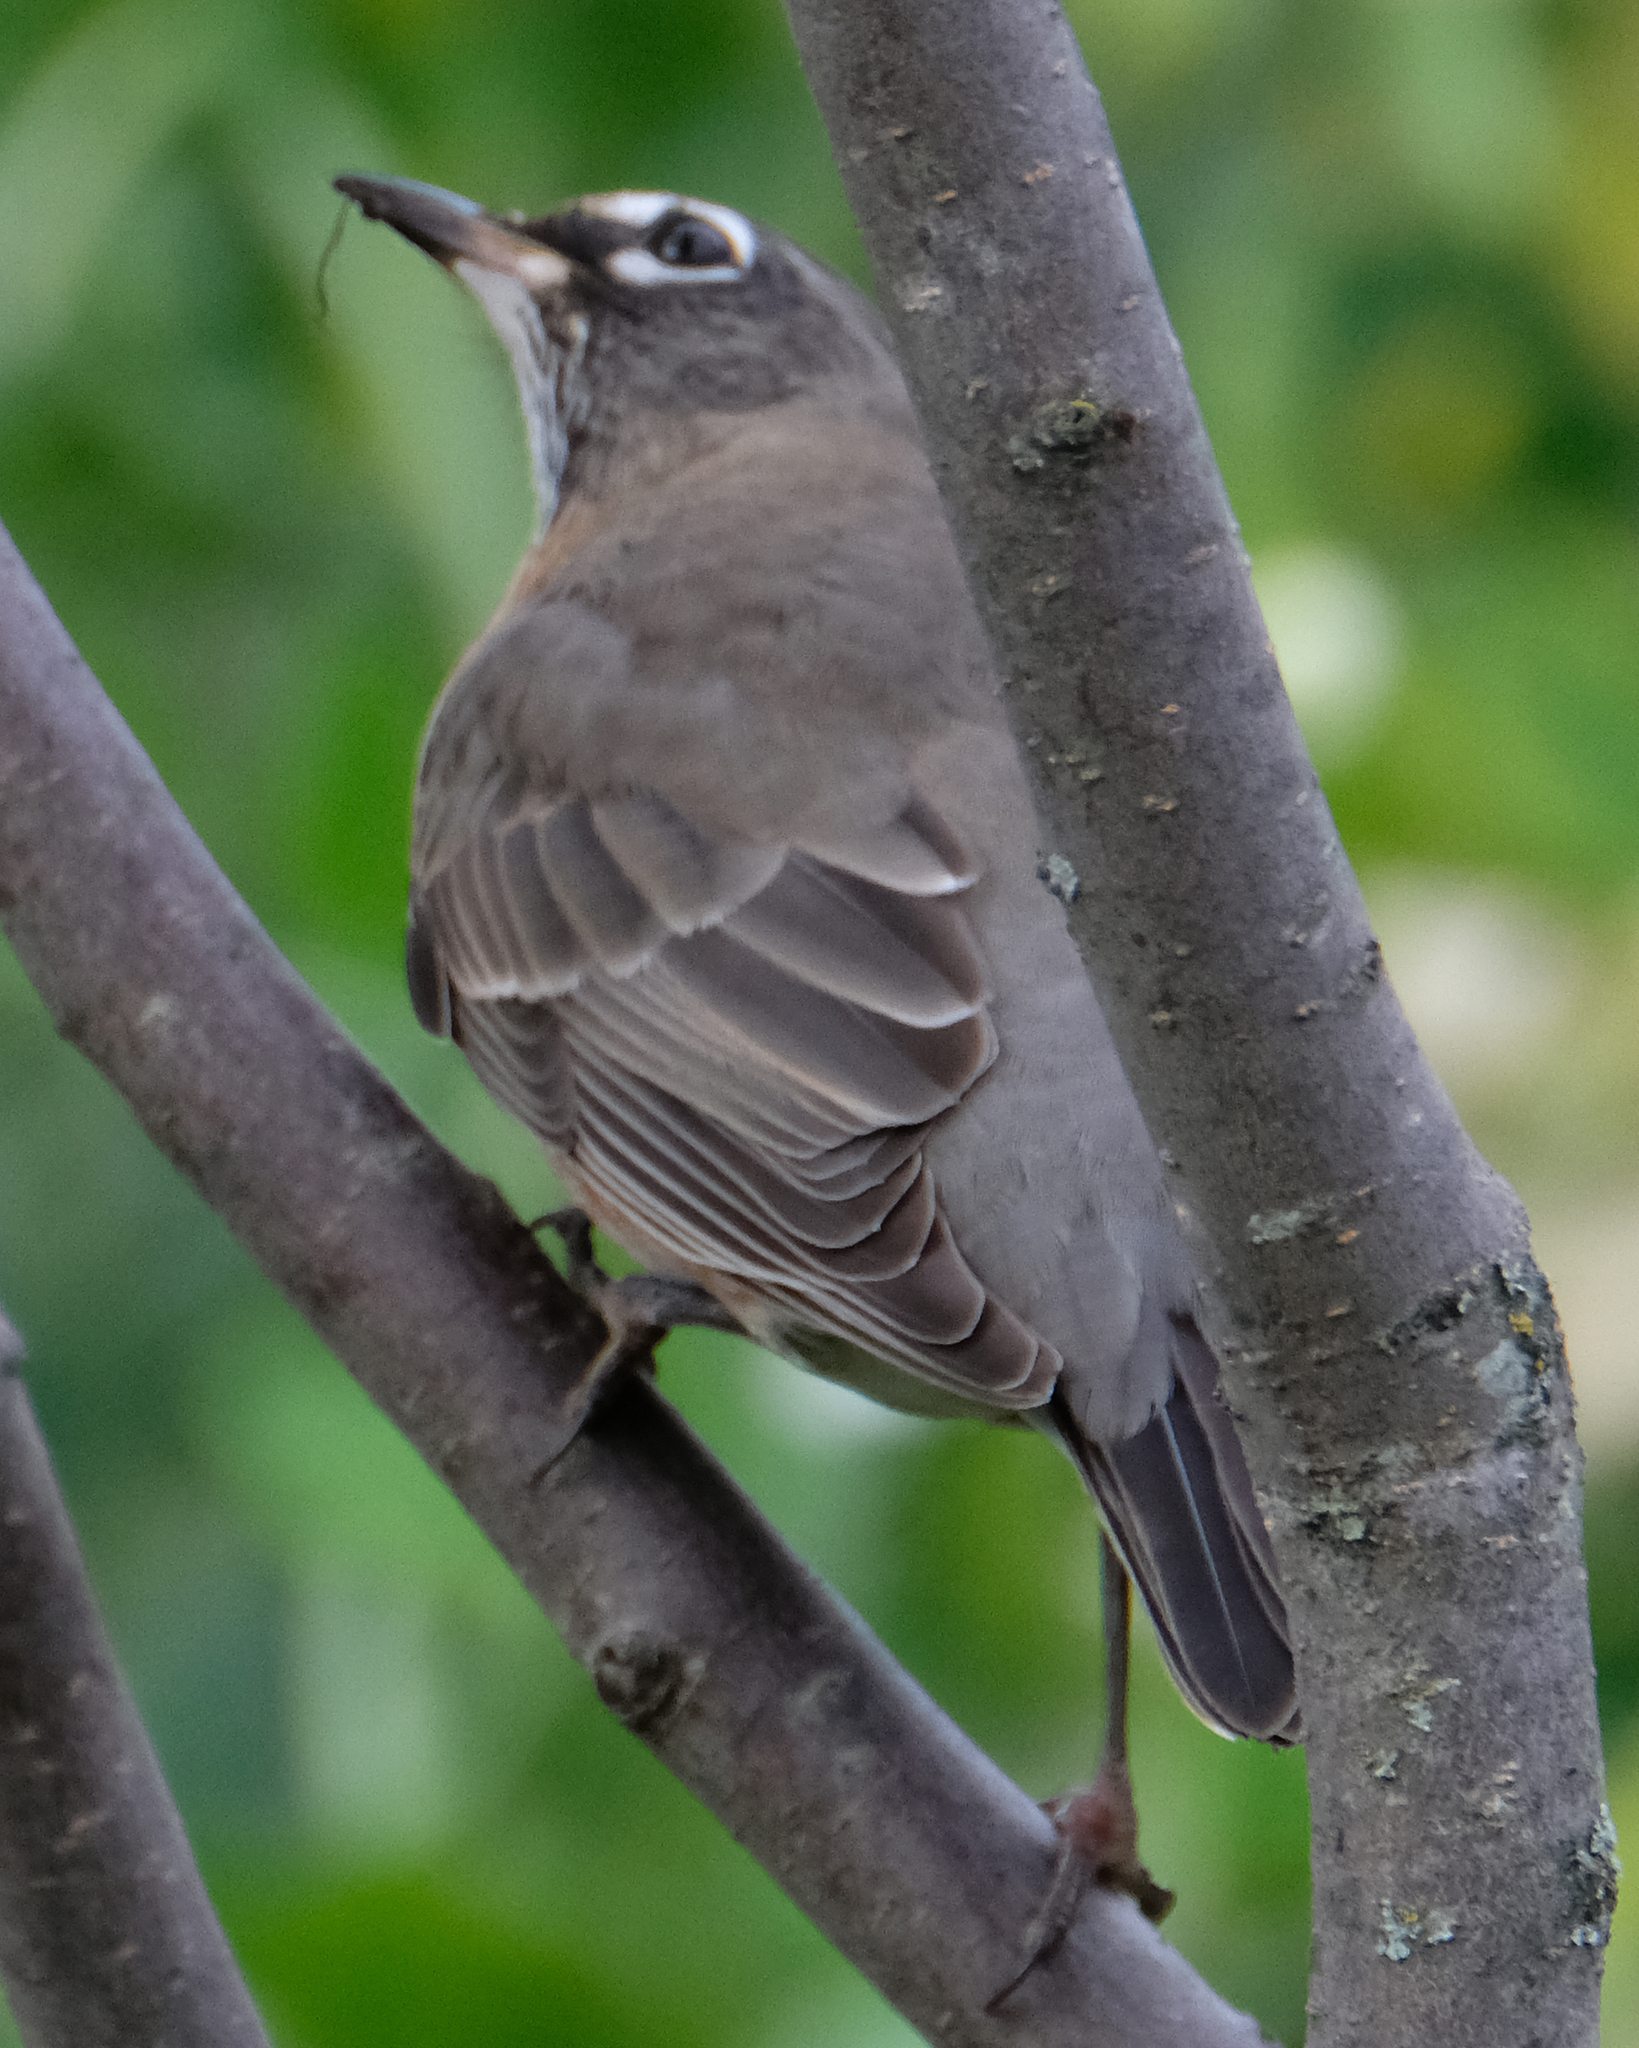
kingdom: Animalia
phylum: Chordata
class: Aves
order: Passeriformes
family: Turdidae
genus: Turdus
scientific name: Turdus migratorius
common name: American robin
